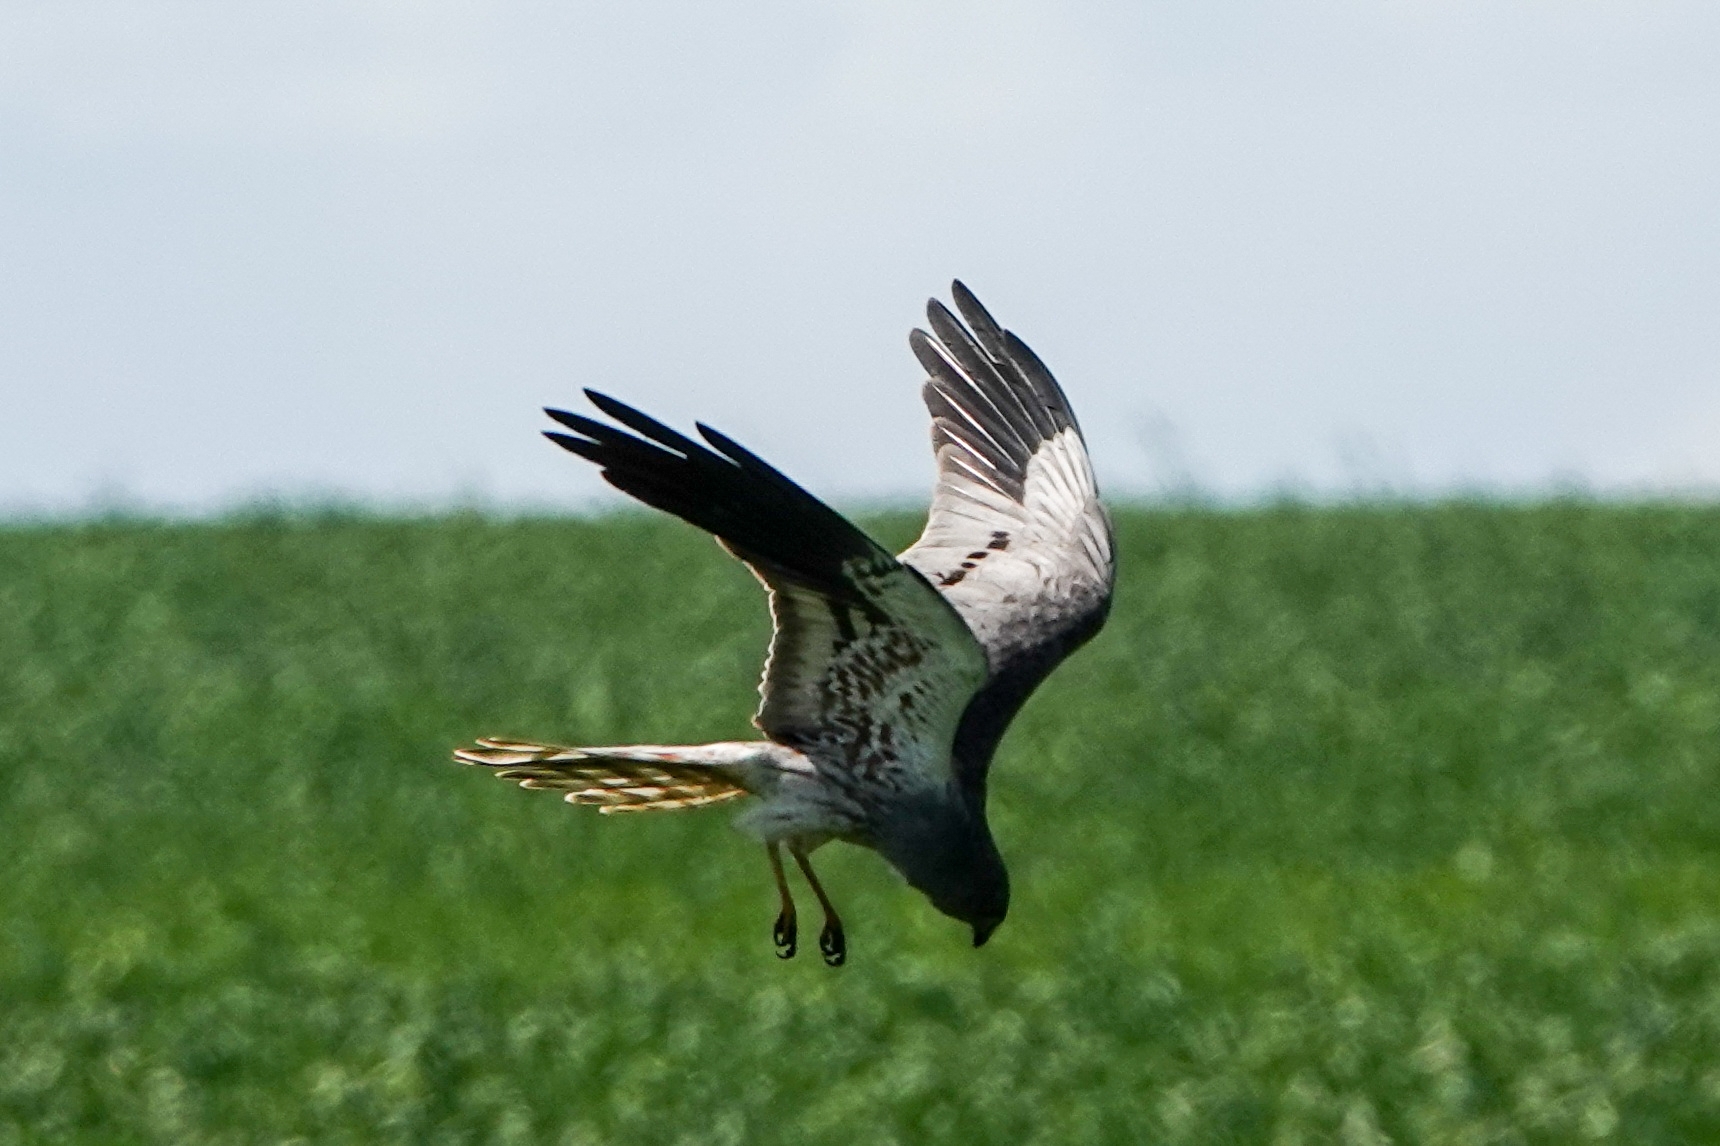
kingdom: Animalia
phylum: Chordata
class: Aves
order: Accipitriformes
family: Accipitridae
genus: Circus
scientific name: Circus pygargus
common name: Montagu's harrier
